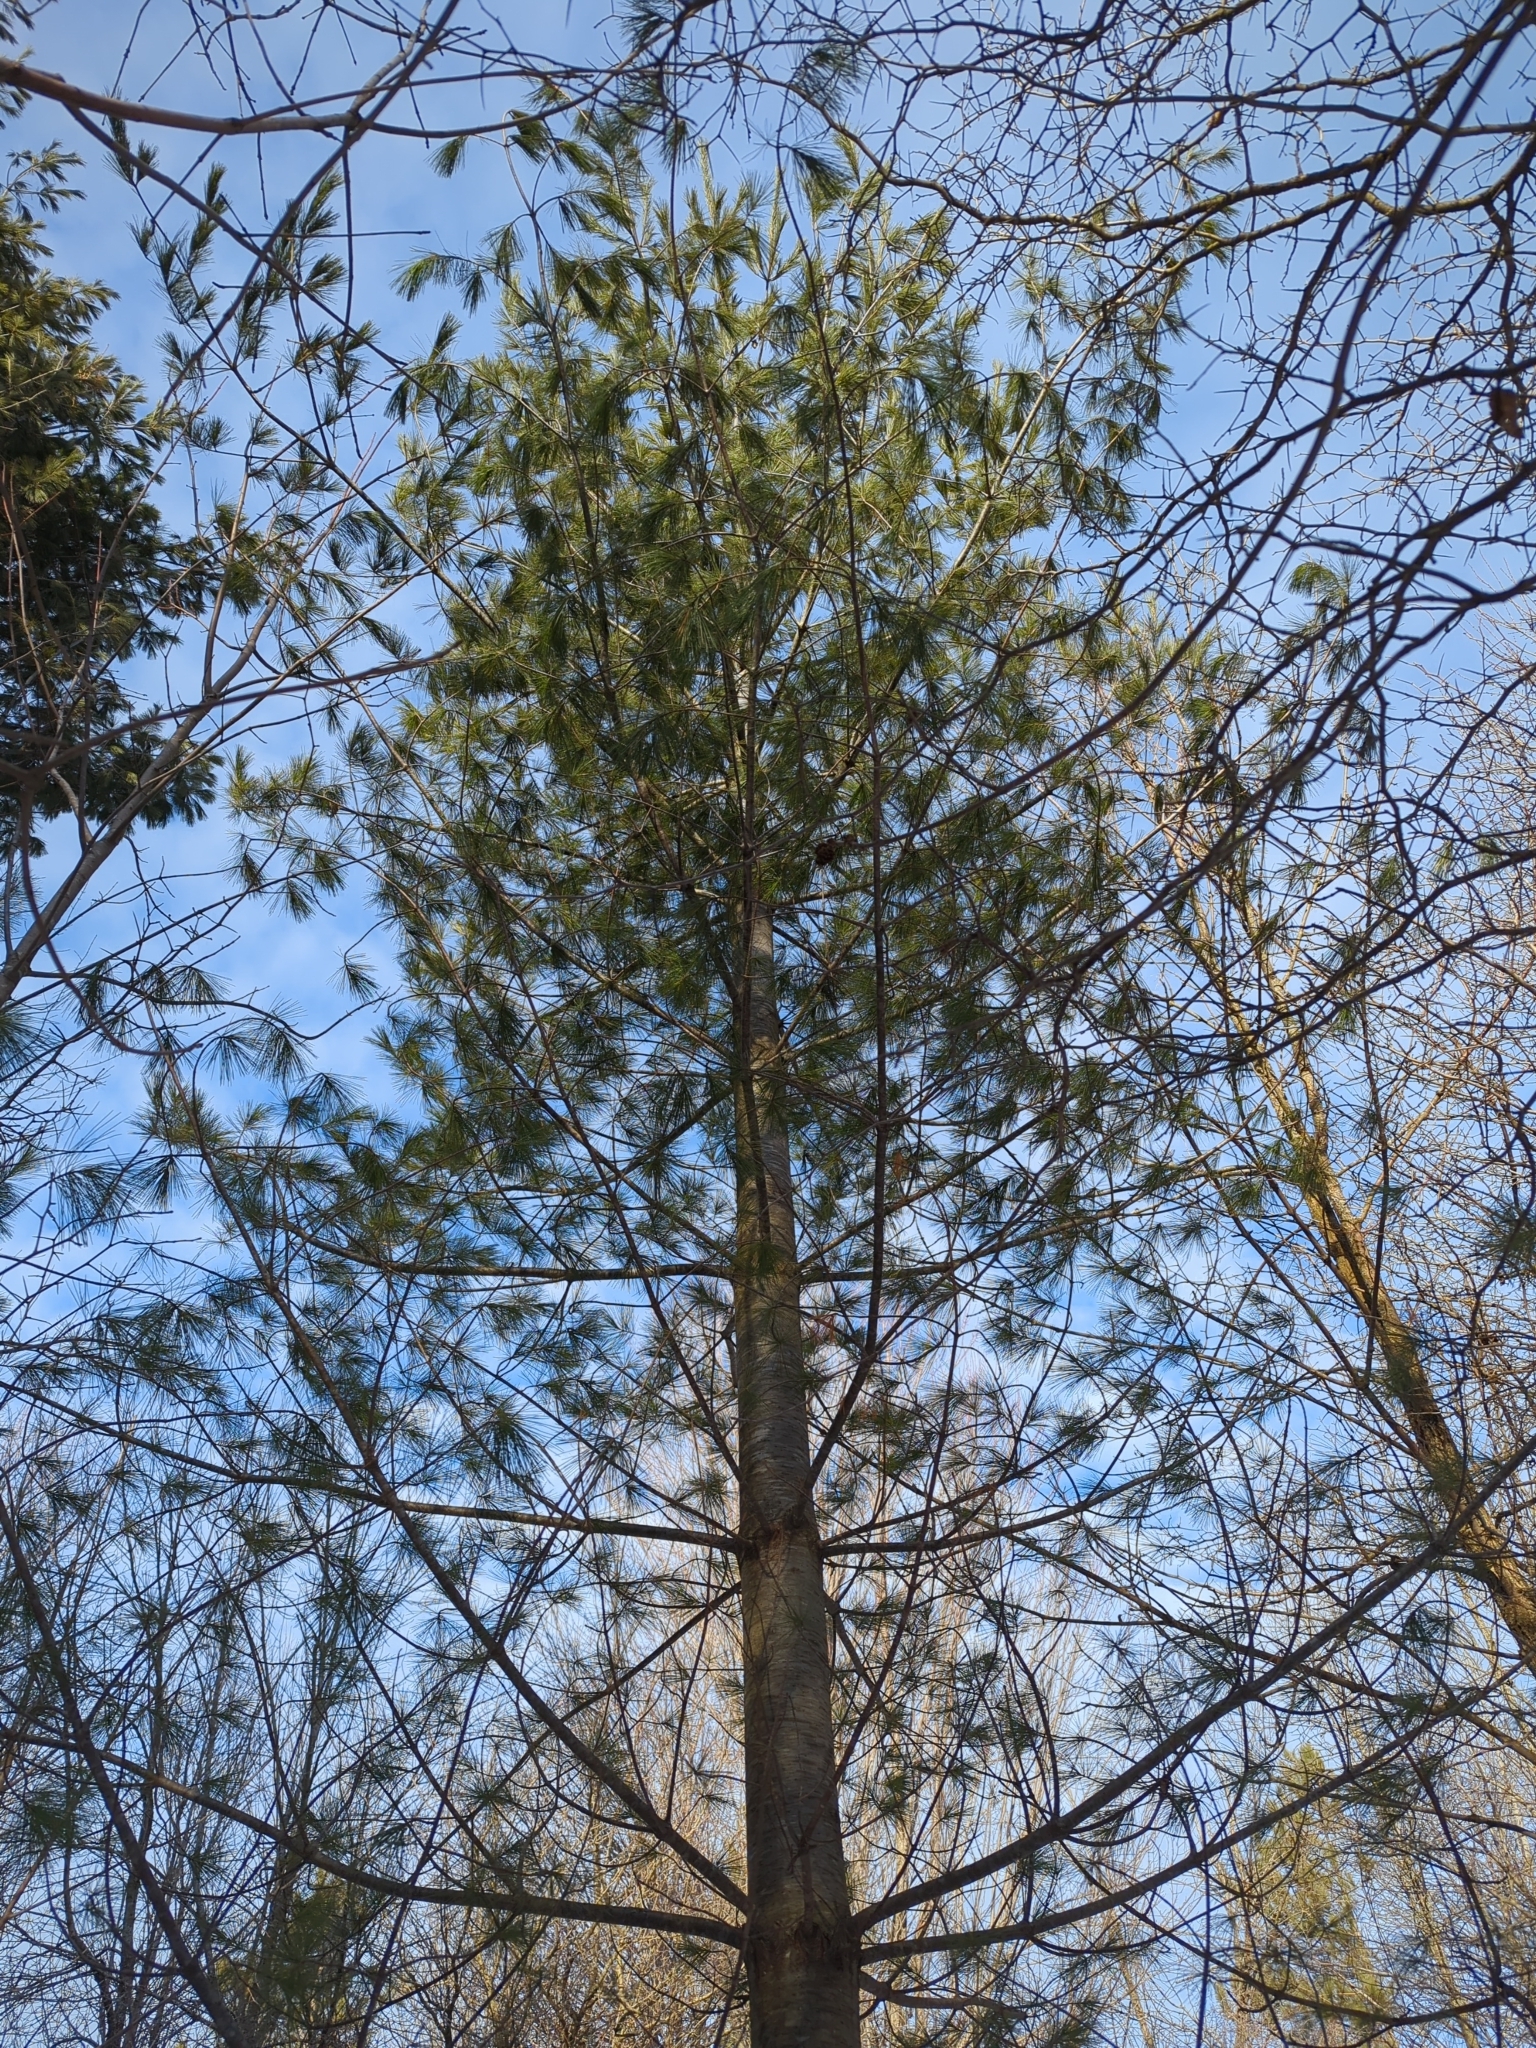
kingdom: Plantae
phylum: Tracheophyta
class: Pinopsida
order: Pinales
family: Pinaceae
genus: Pinus
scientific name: Pinus strobus
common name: Weymouth pine
